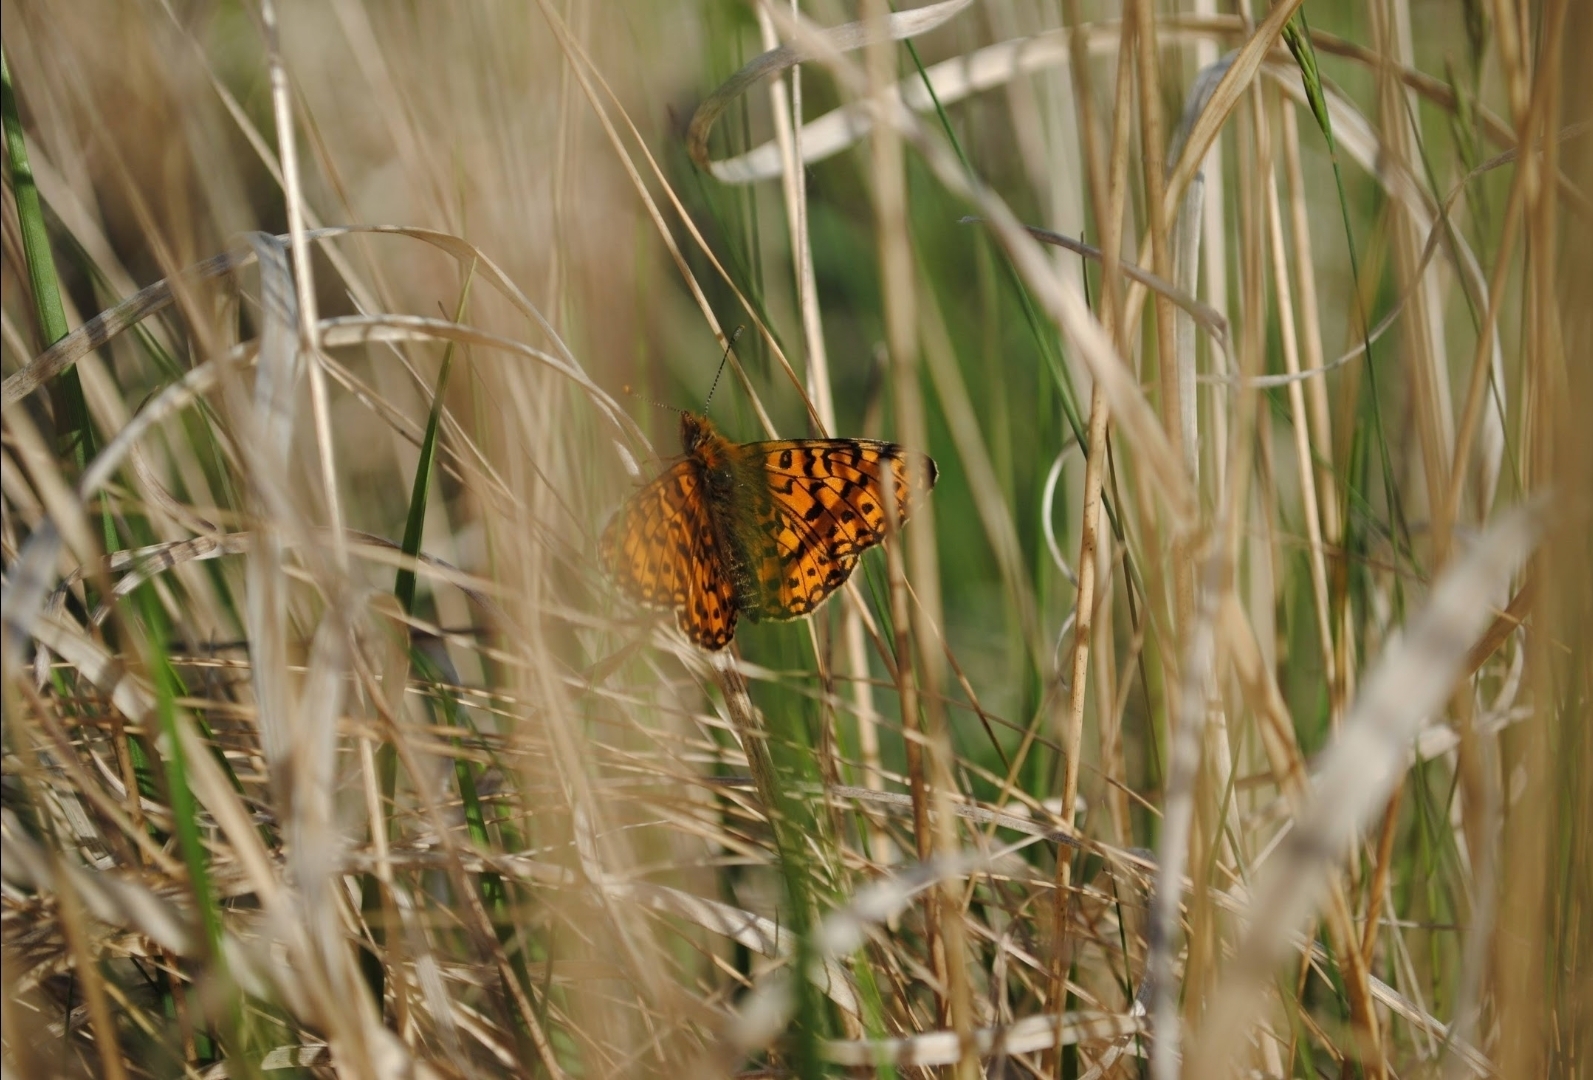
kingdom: Animalia
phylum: Arthropoda
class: Insecta
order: Lepidoptera
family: Nymphalidae
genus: Boloria
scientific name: Boloria selene
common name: Small pearl-bordered fritillary
